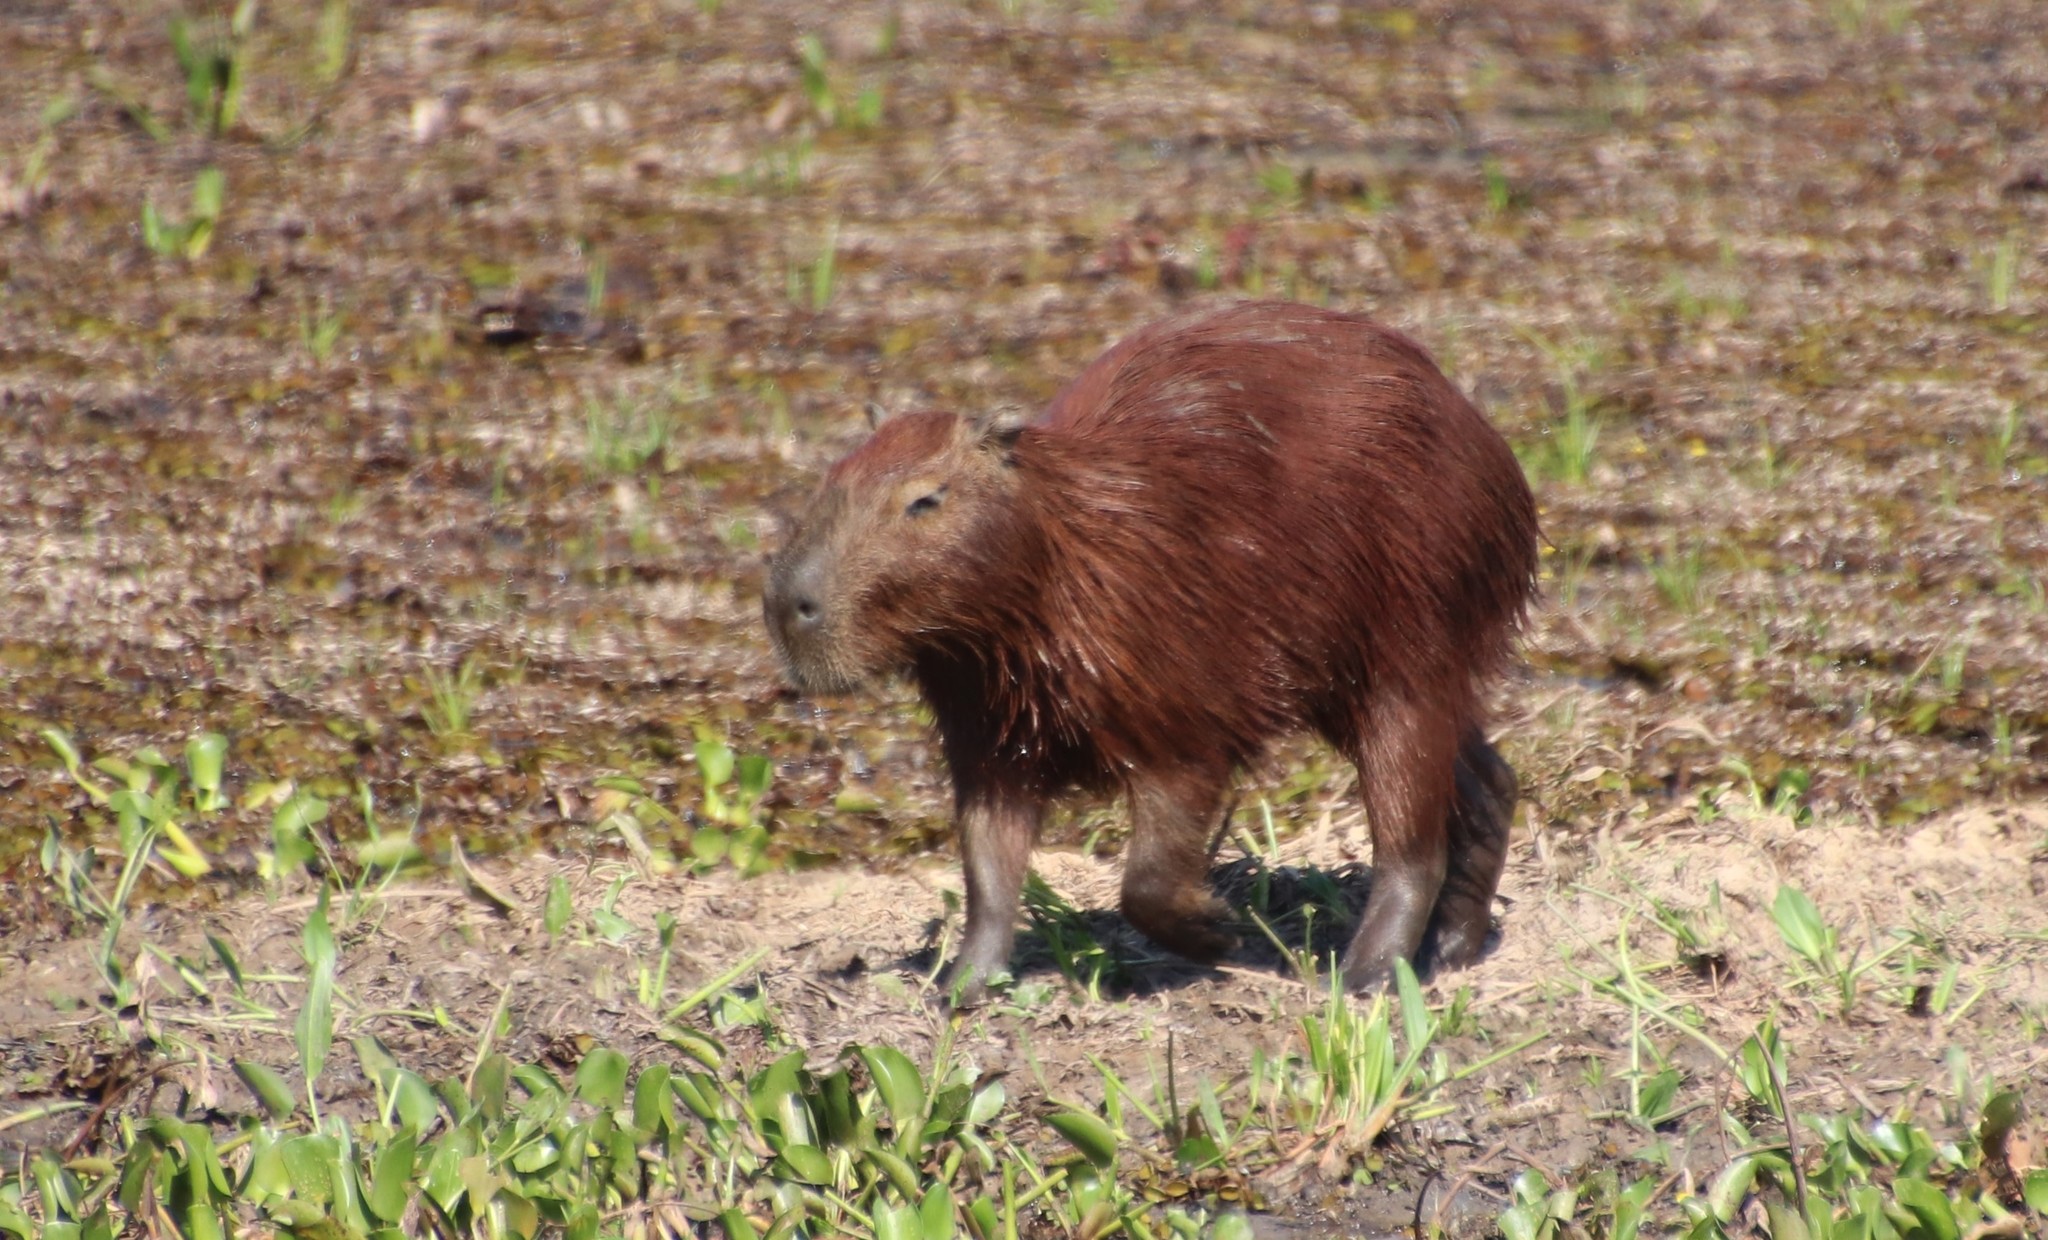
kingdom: Animalia
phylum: Chordata
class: Mammalia
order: Rodentia
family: Caviidae
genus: Hydrochoerus
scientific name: Hydrochoerus hydrochaeris
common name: Capybara
